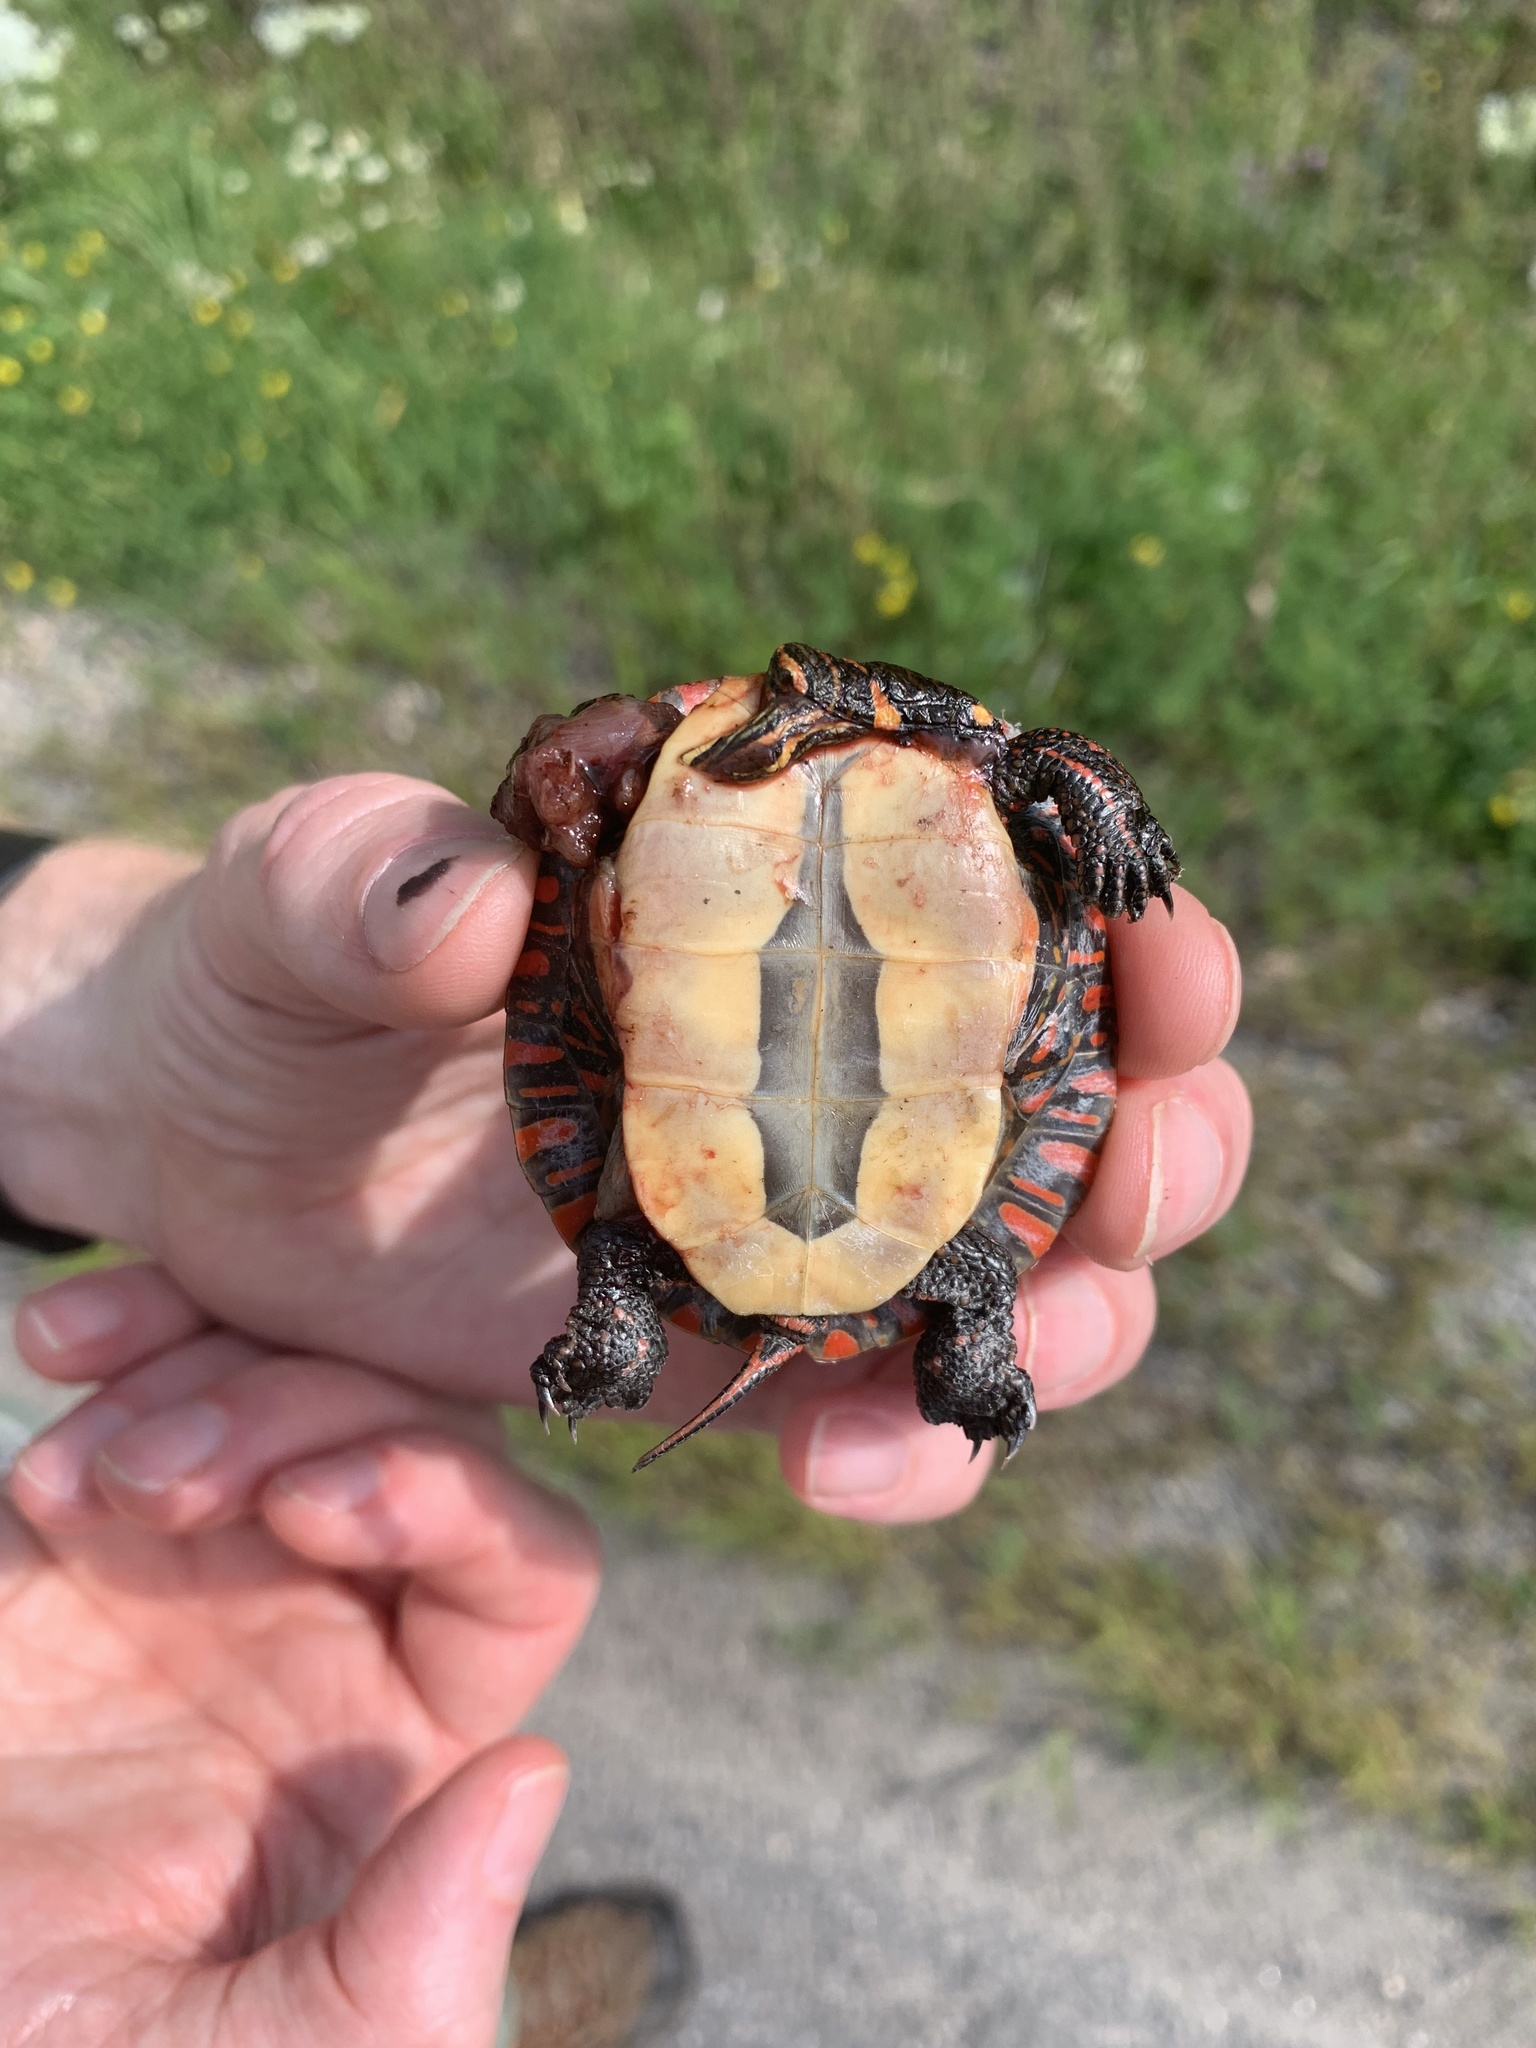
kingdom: Animalia
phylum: Chordata
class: Testudines
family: Emydidae
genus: Chrysemys
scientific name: Chrysemys picta
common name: Painted turtle
